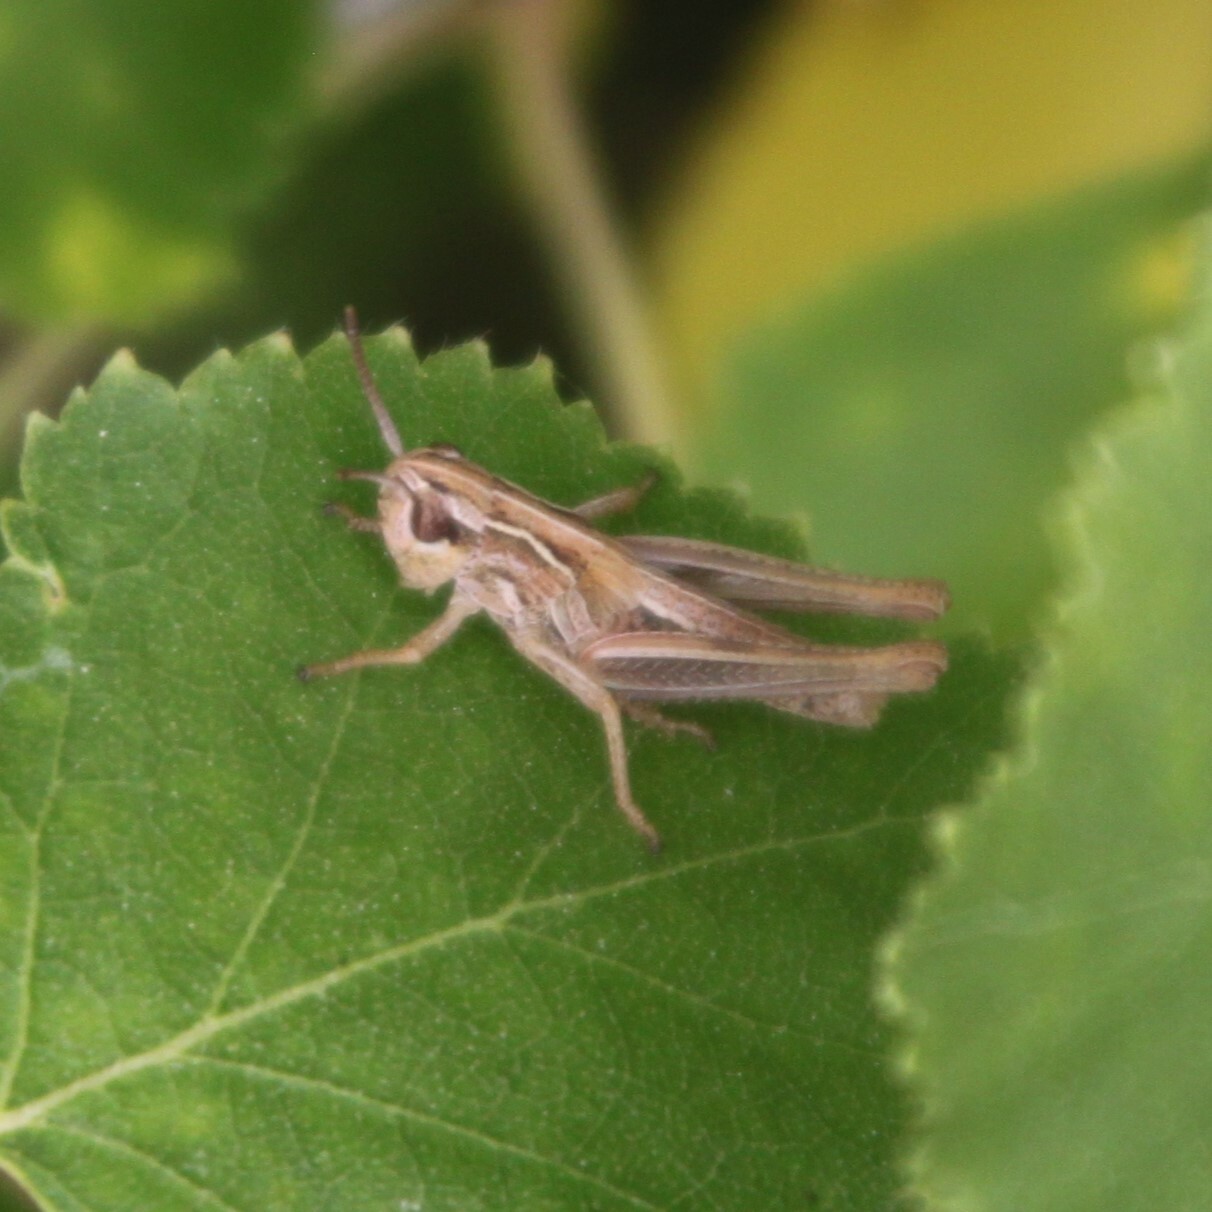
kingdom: Animalia
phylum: Arthropoda
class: Insecta
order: Orthoptera
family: Acrididae
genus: Pseudochorthippus
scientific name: Pseudochorthippus parallelus
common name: Meadow grasshopper
